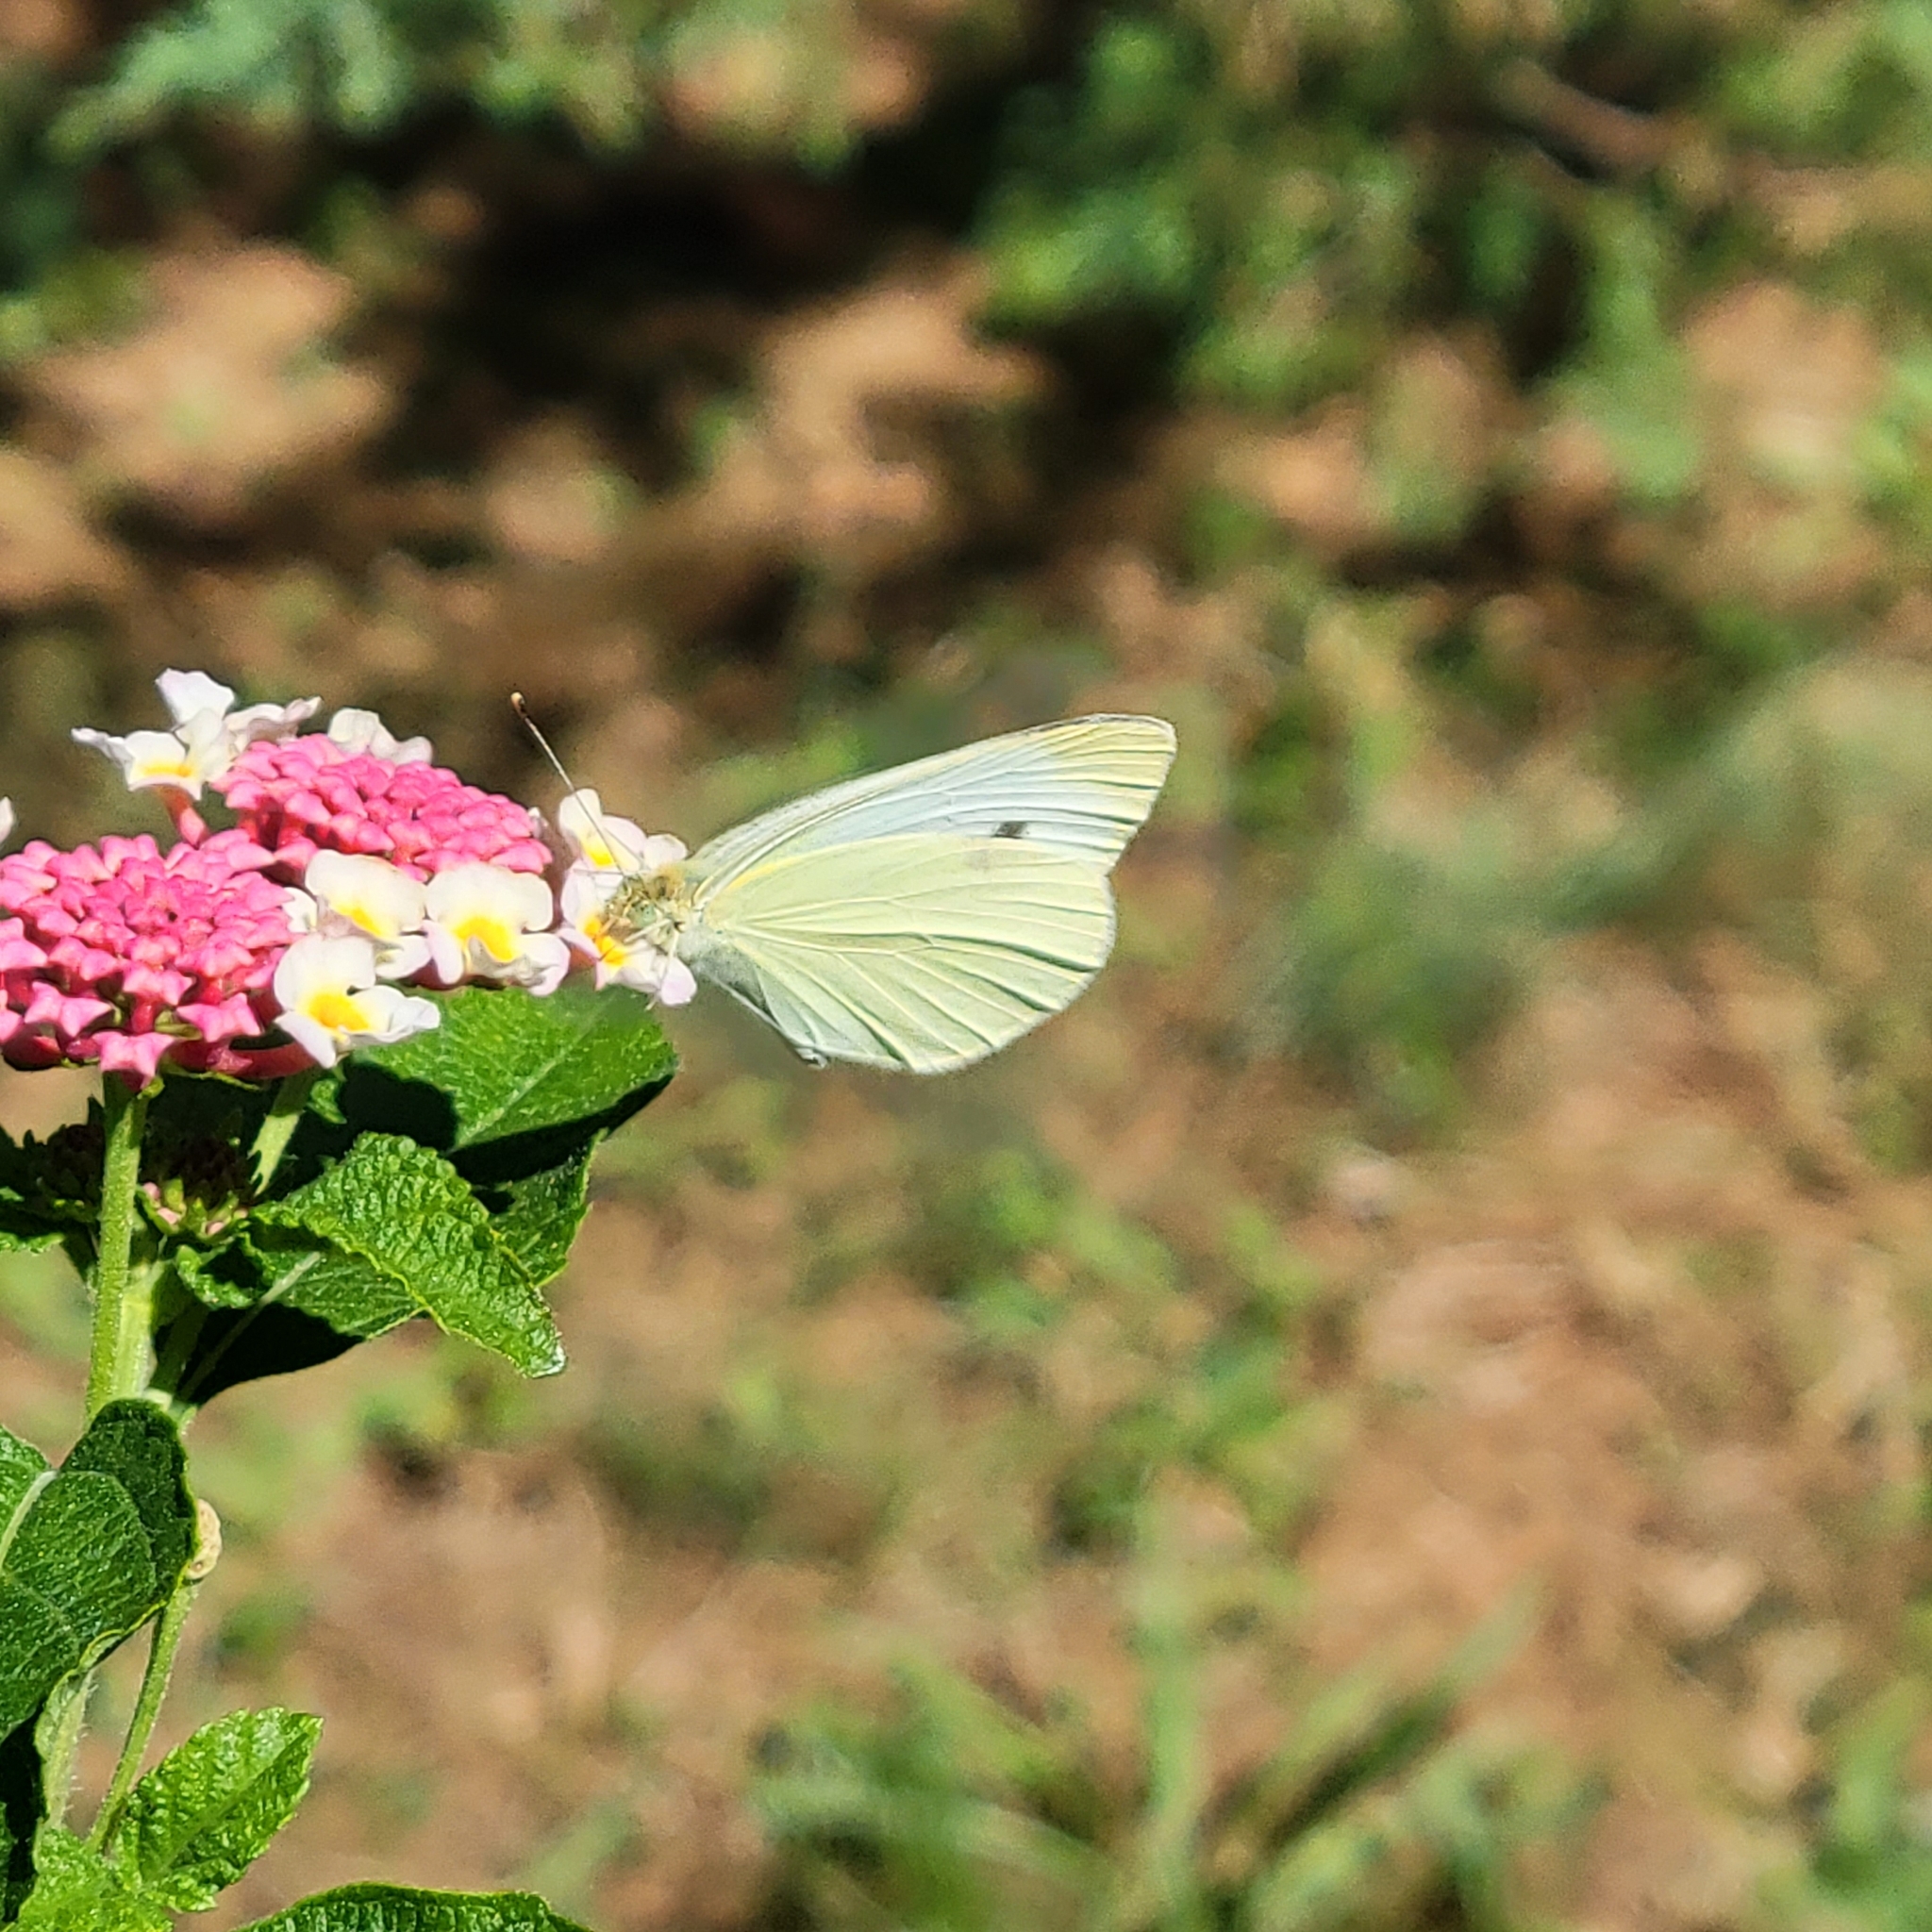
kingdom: Animalia
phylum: Arthropoda
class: Insecta
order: Lepidoptera
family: Pieridae
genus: Pieris
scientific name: Pieris rapae
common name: Small white
